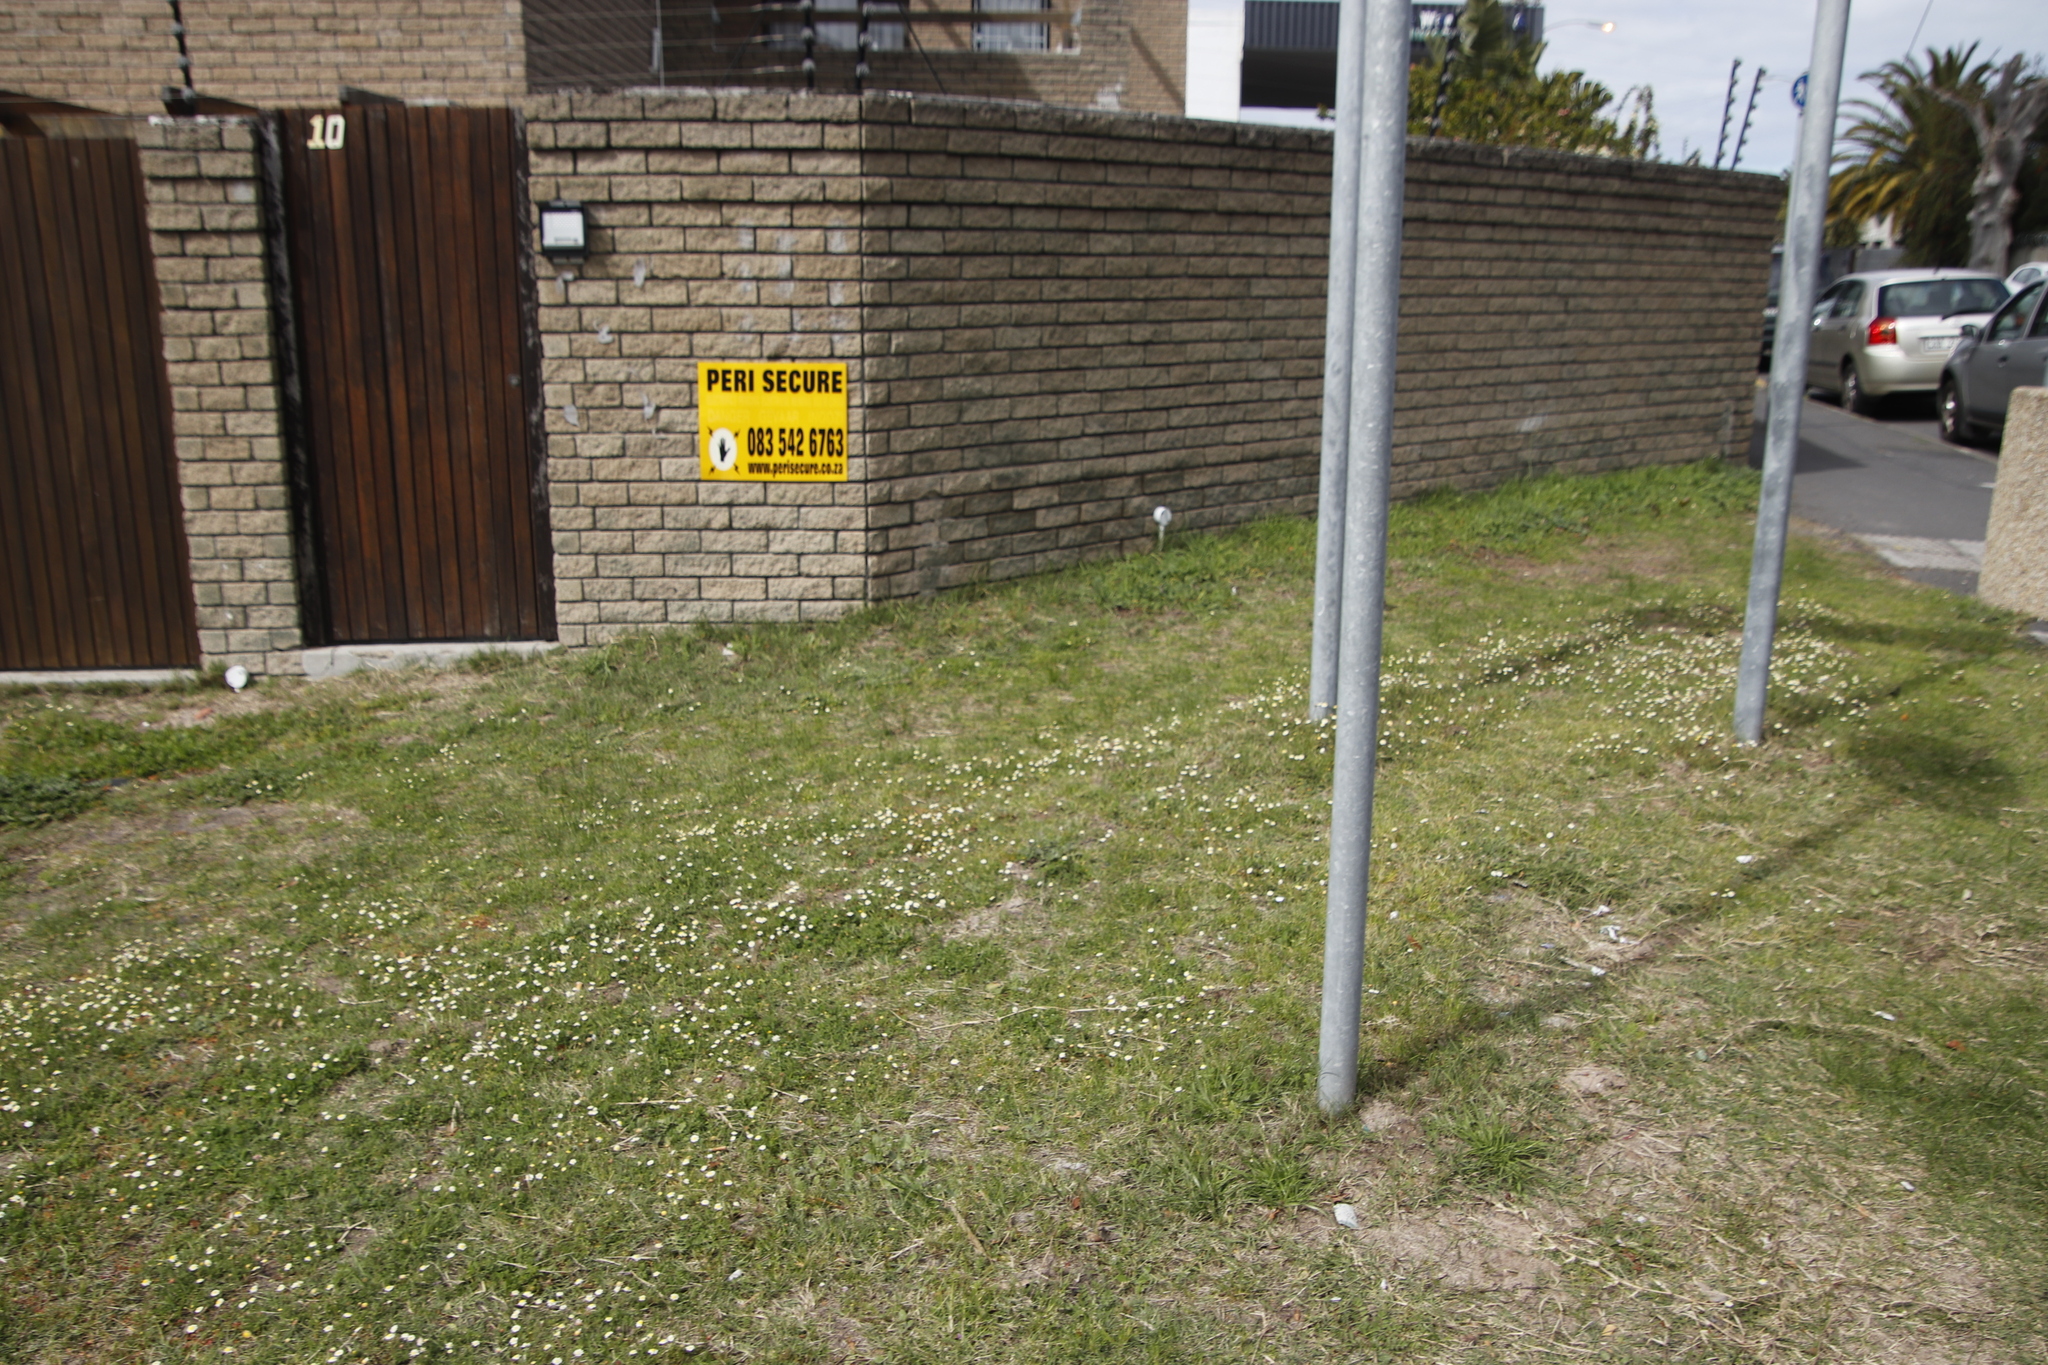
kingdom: Plantae
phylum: Tracheophyta
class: Magnoliopsida
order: Asterales
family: Asteraceae
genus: Cotula
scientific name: Cotula turbinata
